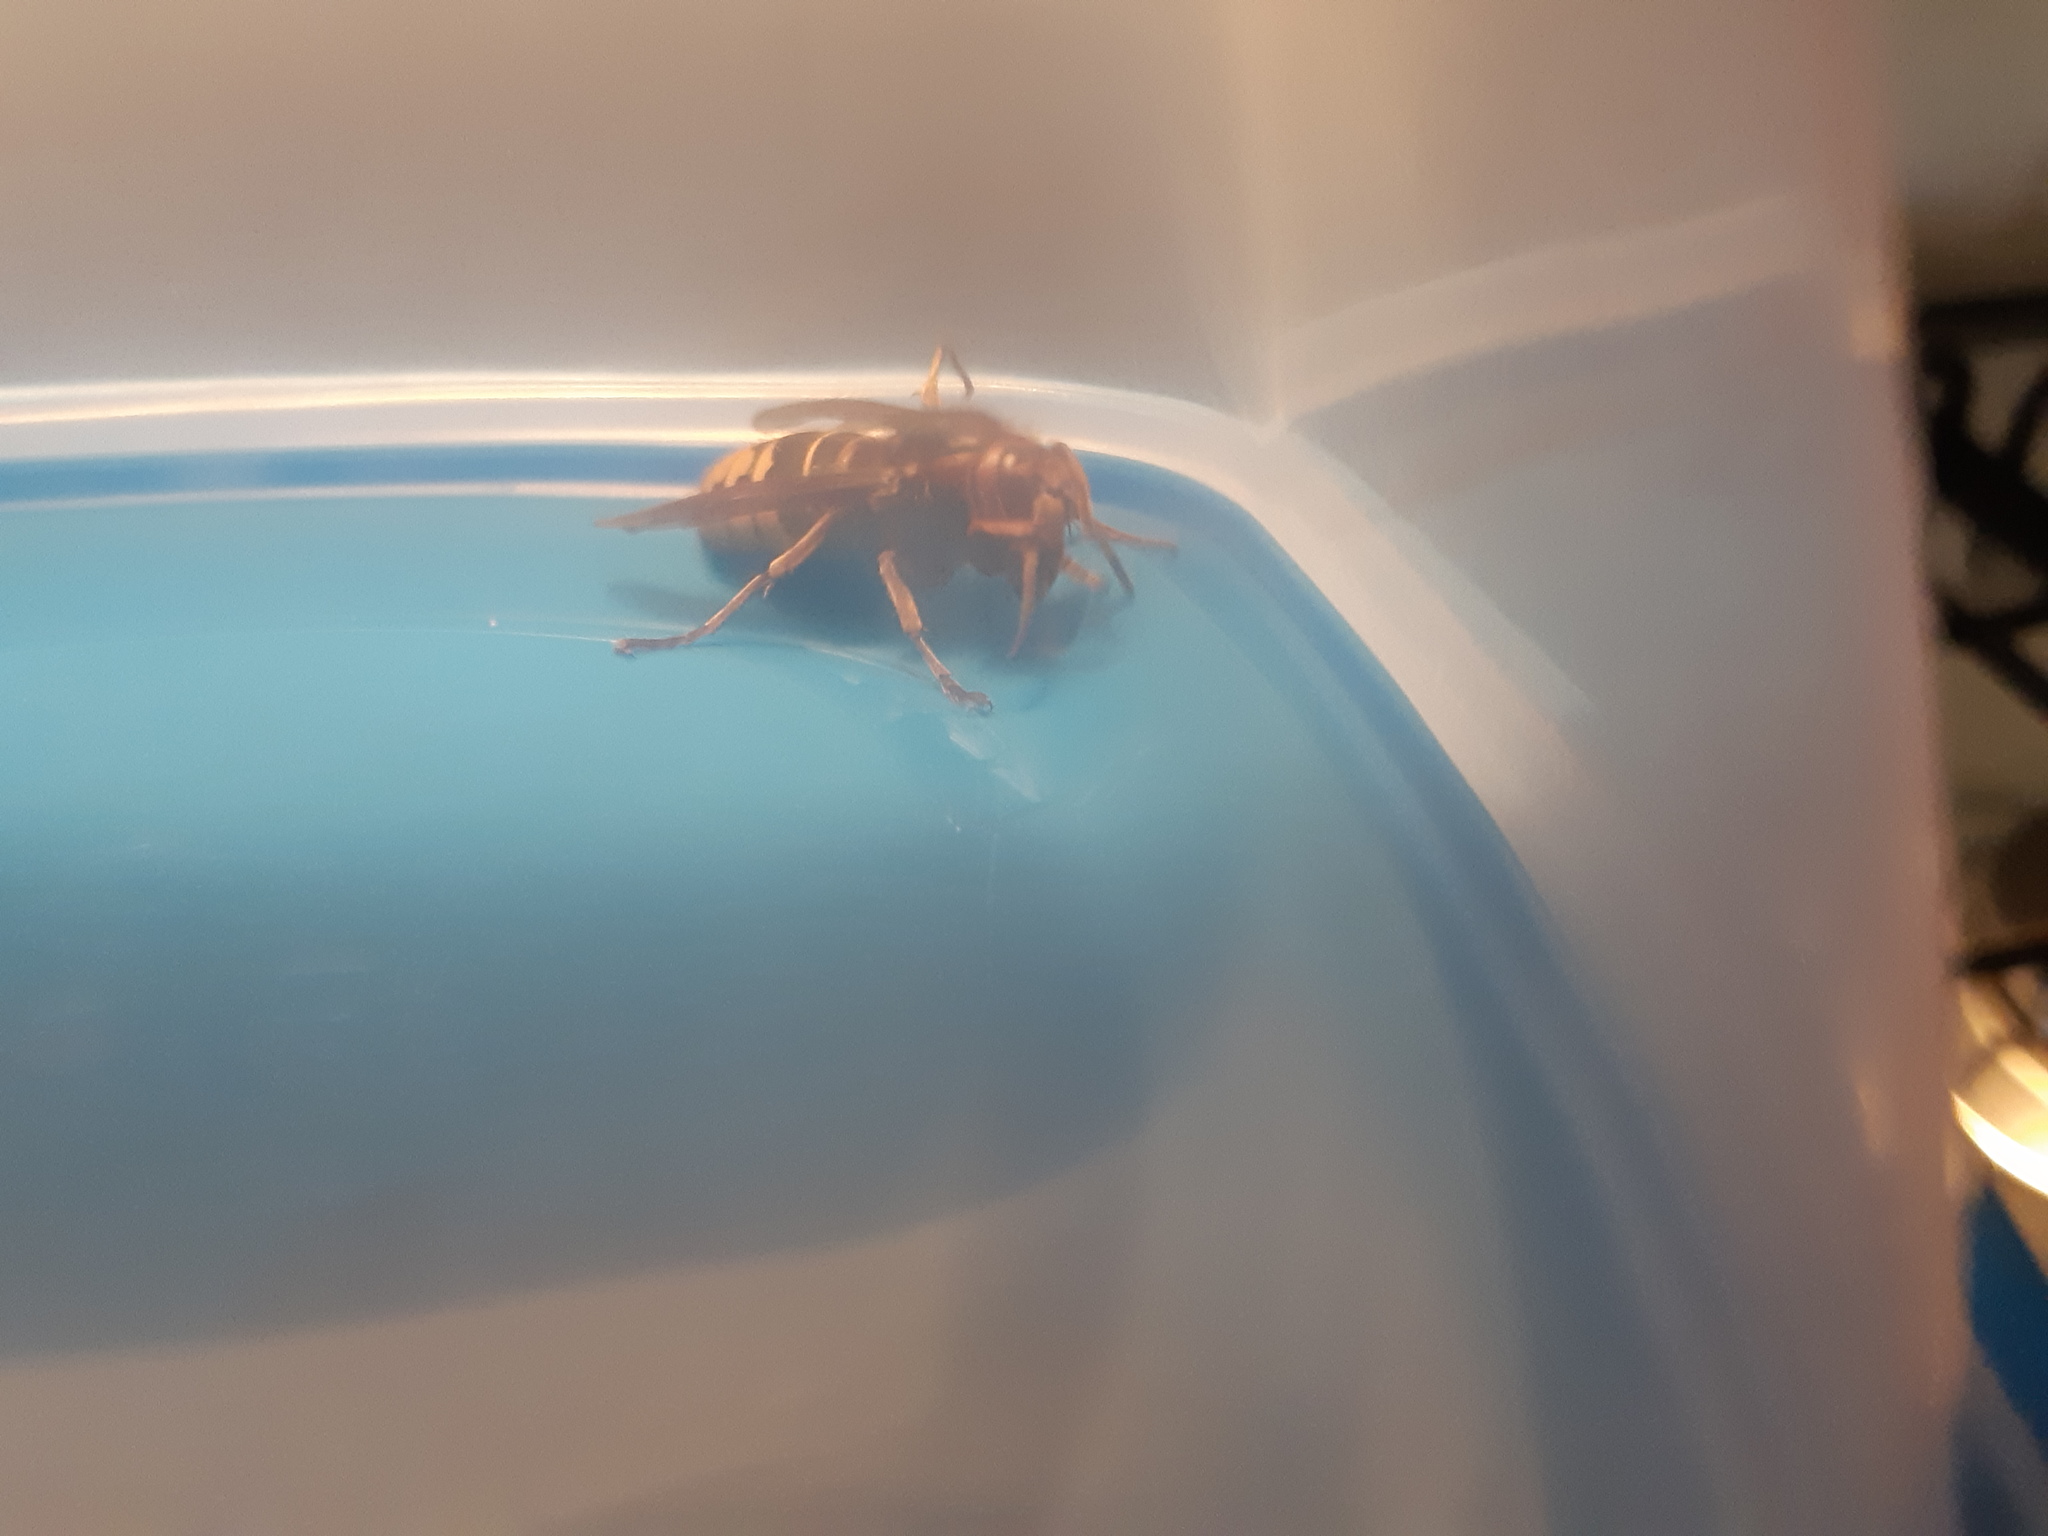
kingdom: Animalia
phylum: Arthropoda
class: Insecta
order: Hymenoptera
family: Vespidae
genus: Vespa
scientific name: Vespa crabro
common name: Hornet
